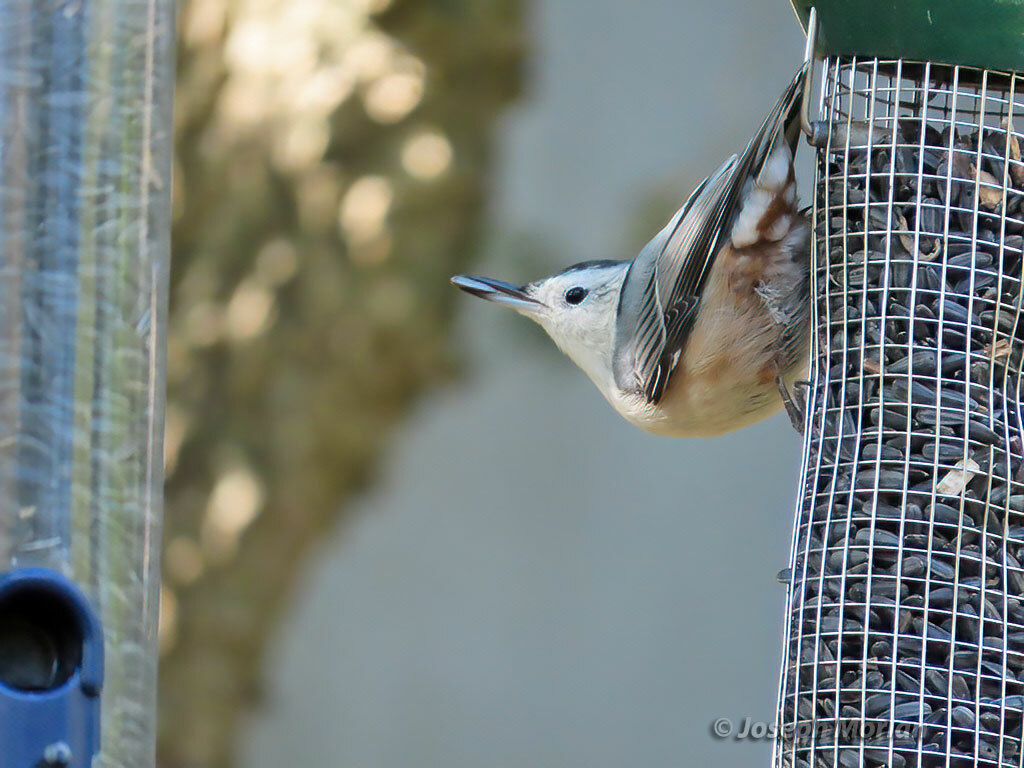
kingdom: Animalia
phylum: Chordata
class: Aves
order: Passeriformes
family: Sittidae
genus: Sitta
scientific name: Sitta carolinensis
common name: White-breasted nuthatch
